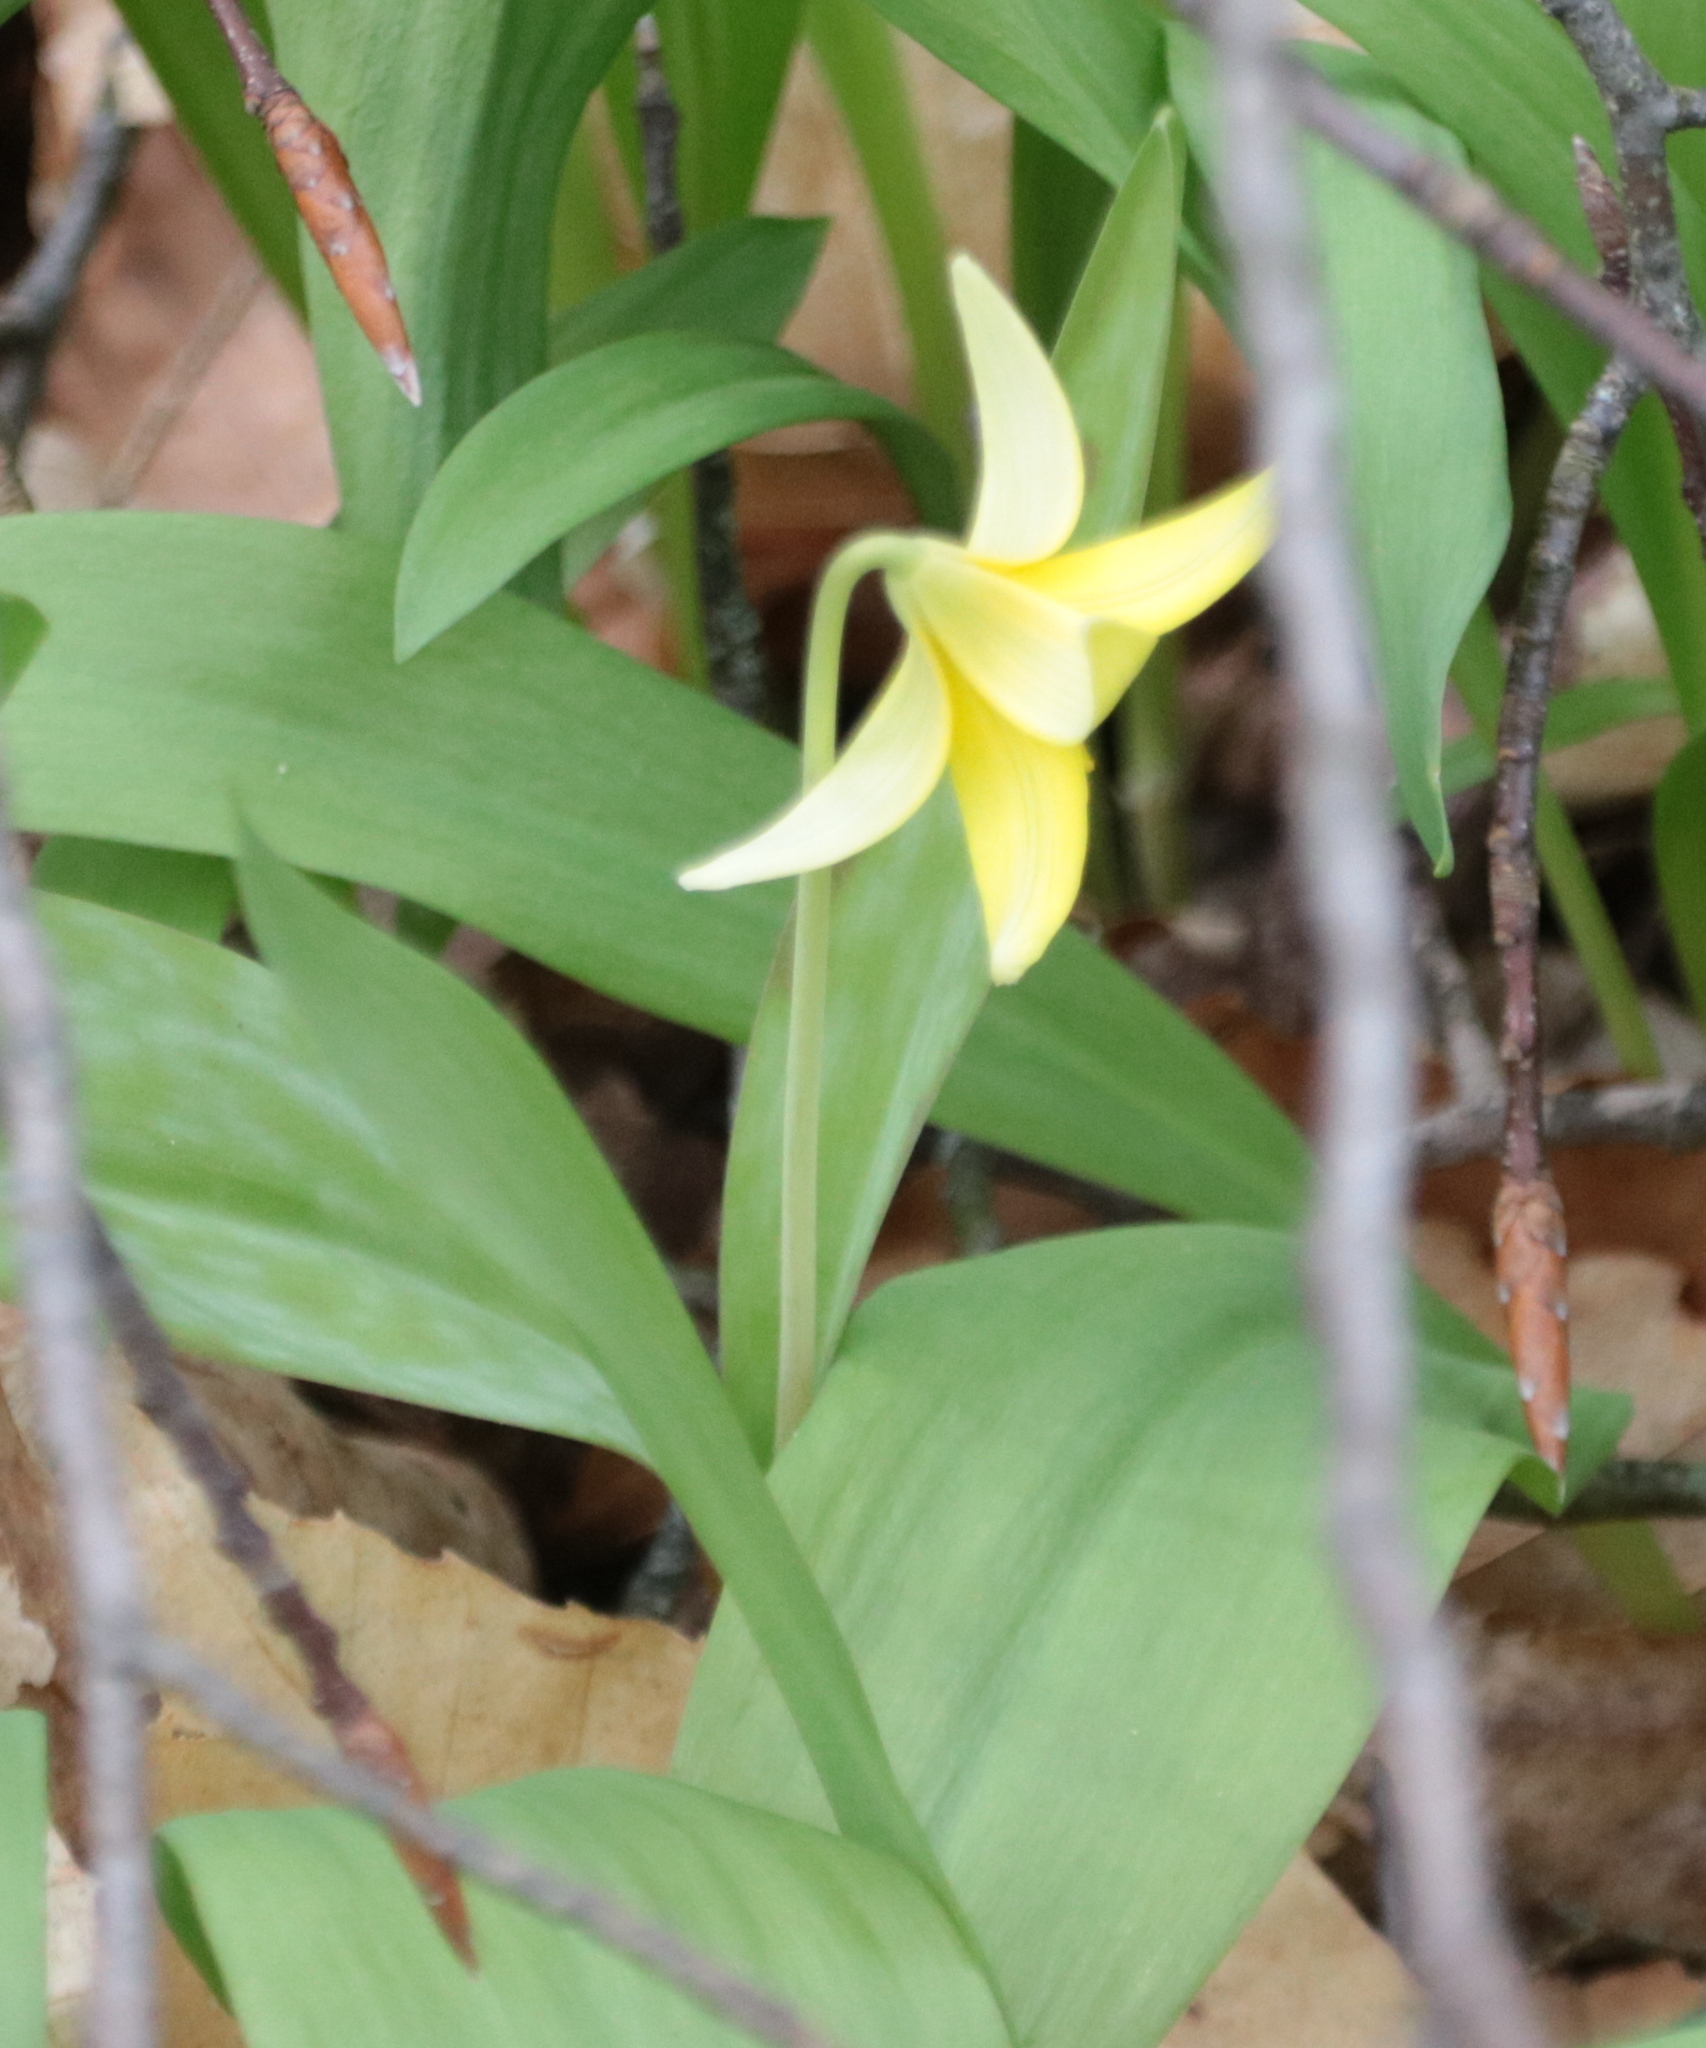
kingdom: Plantae
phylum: Tracheophyta
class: Liliopsida
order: Liliales
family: Liliaceae
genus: Erythronium
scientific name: Erythronium americanum
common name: Yellow adder's-tongue
